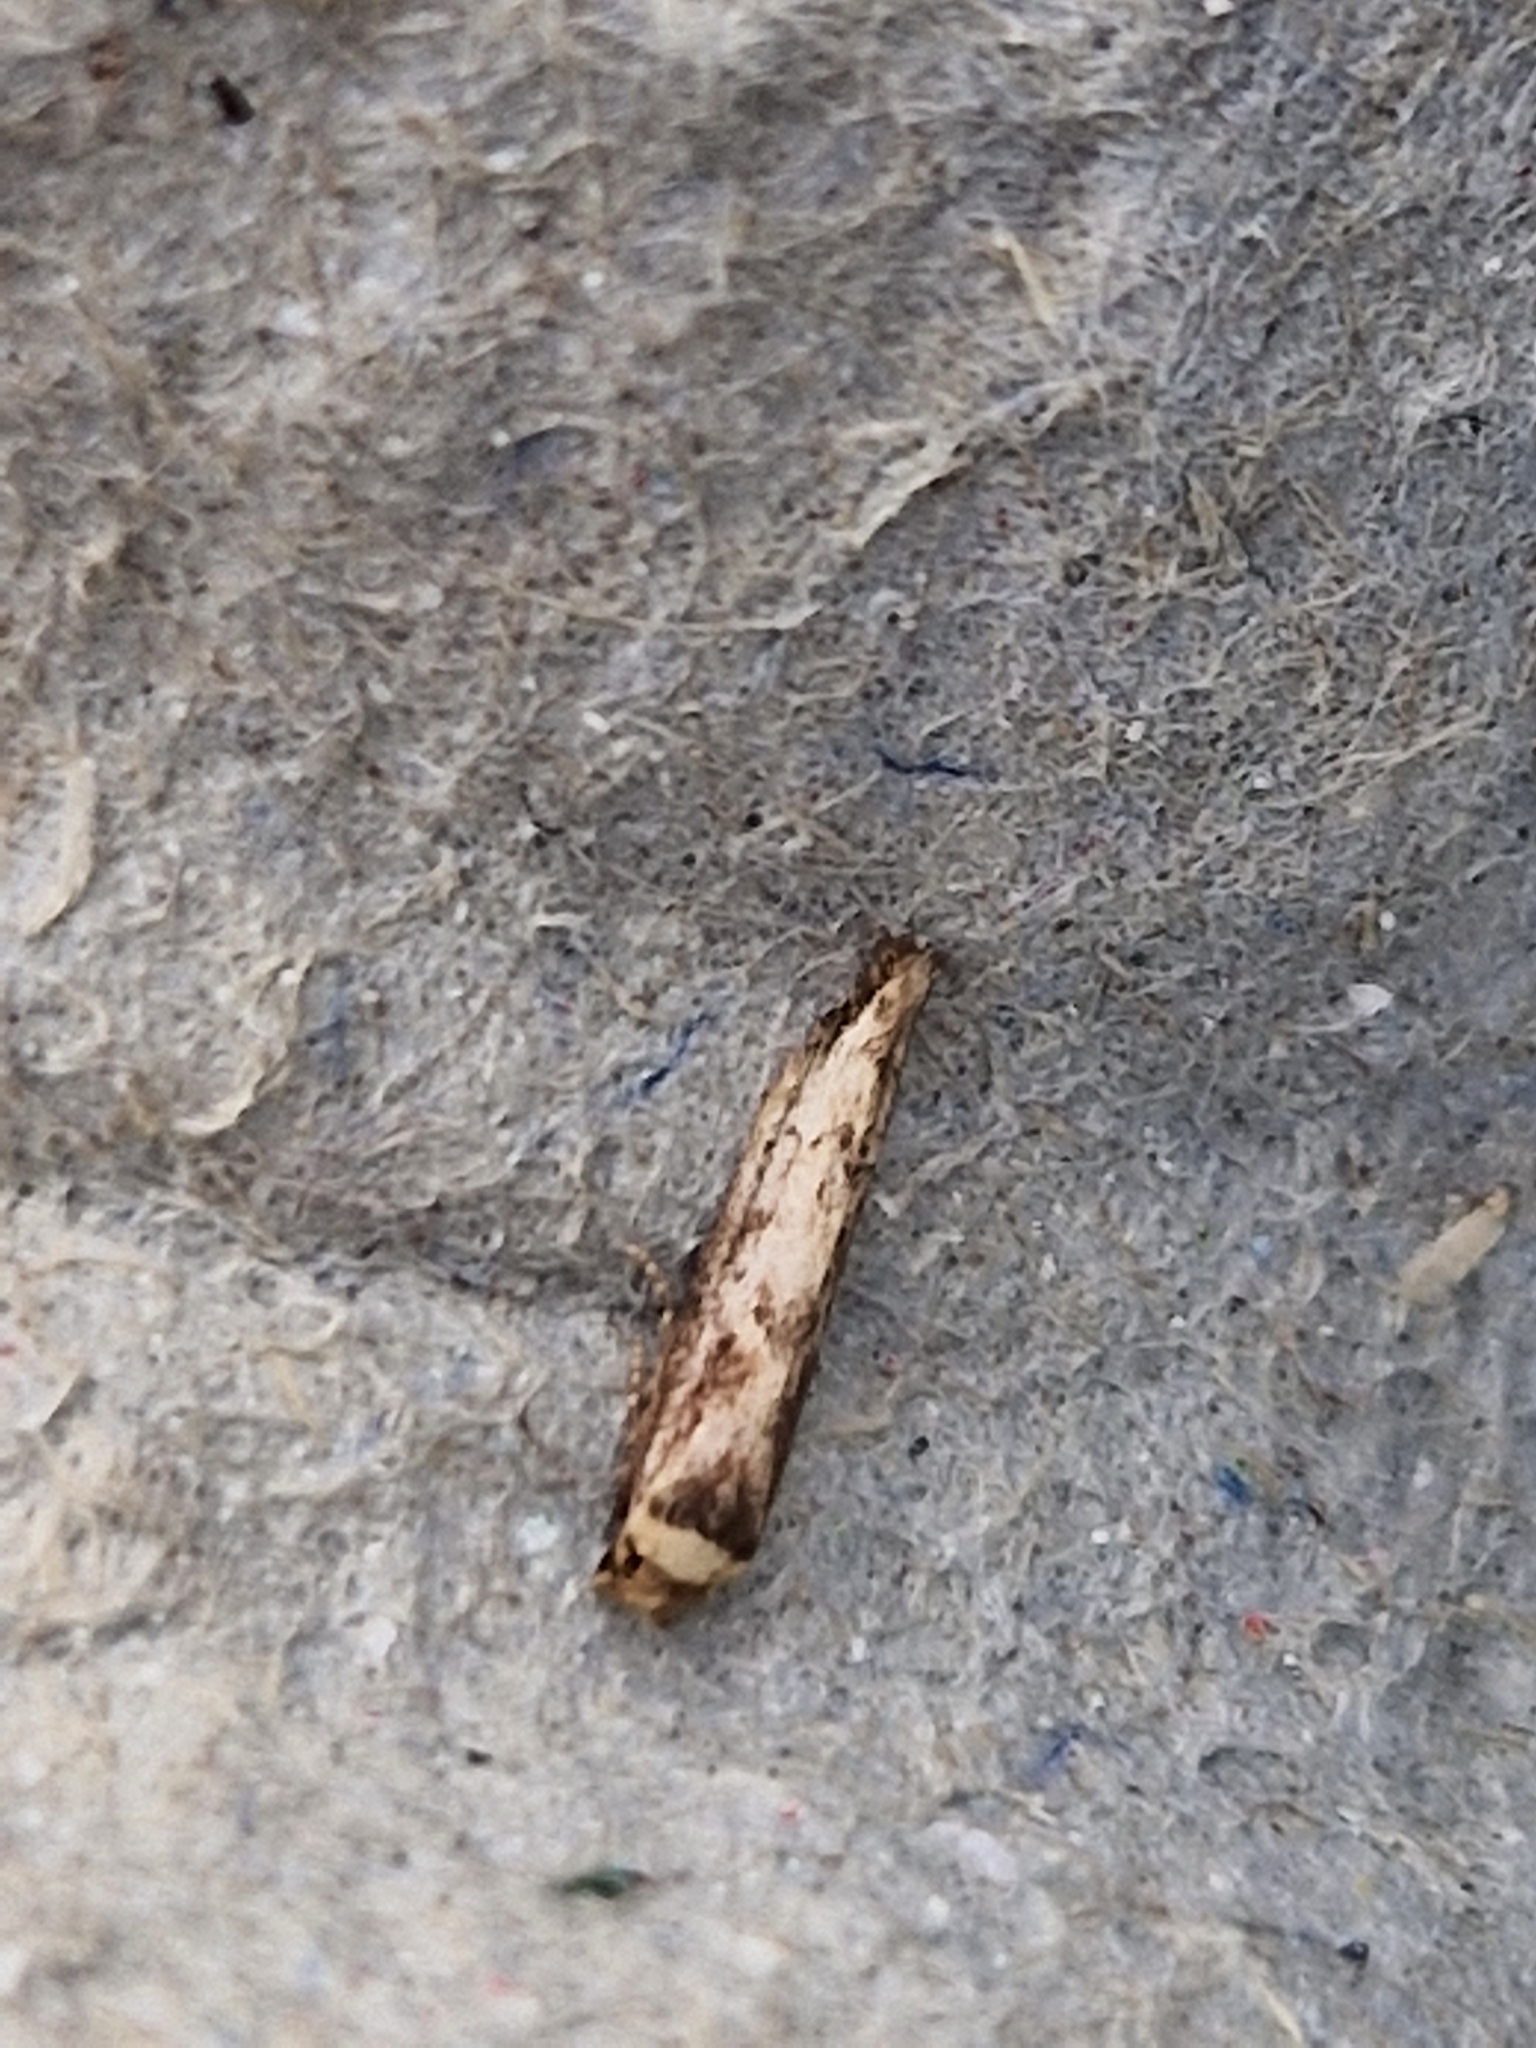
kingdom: Animalia
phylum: Arthropoda
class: Insecta
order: Lepidoptera
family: Blastobasidae
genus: Blastobasis
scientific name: Blastobasis adustella
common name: Dingy dowd
